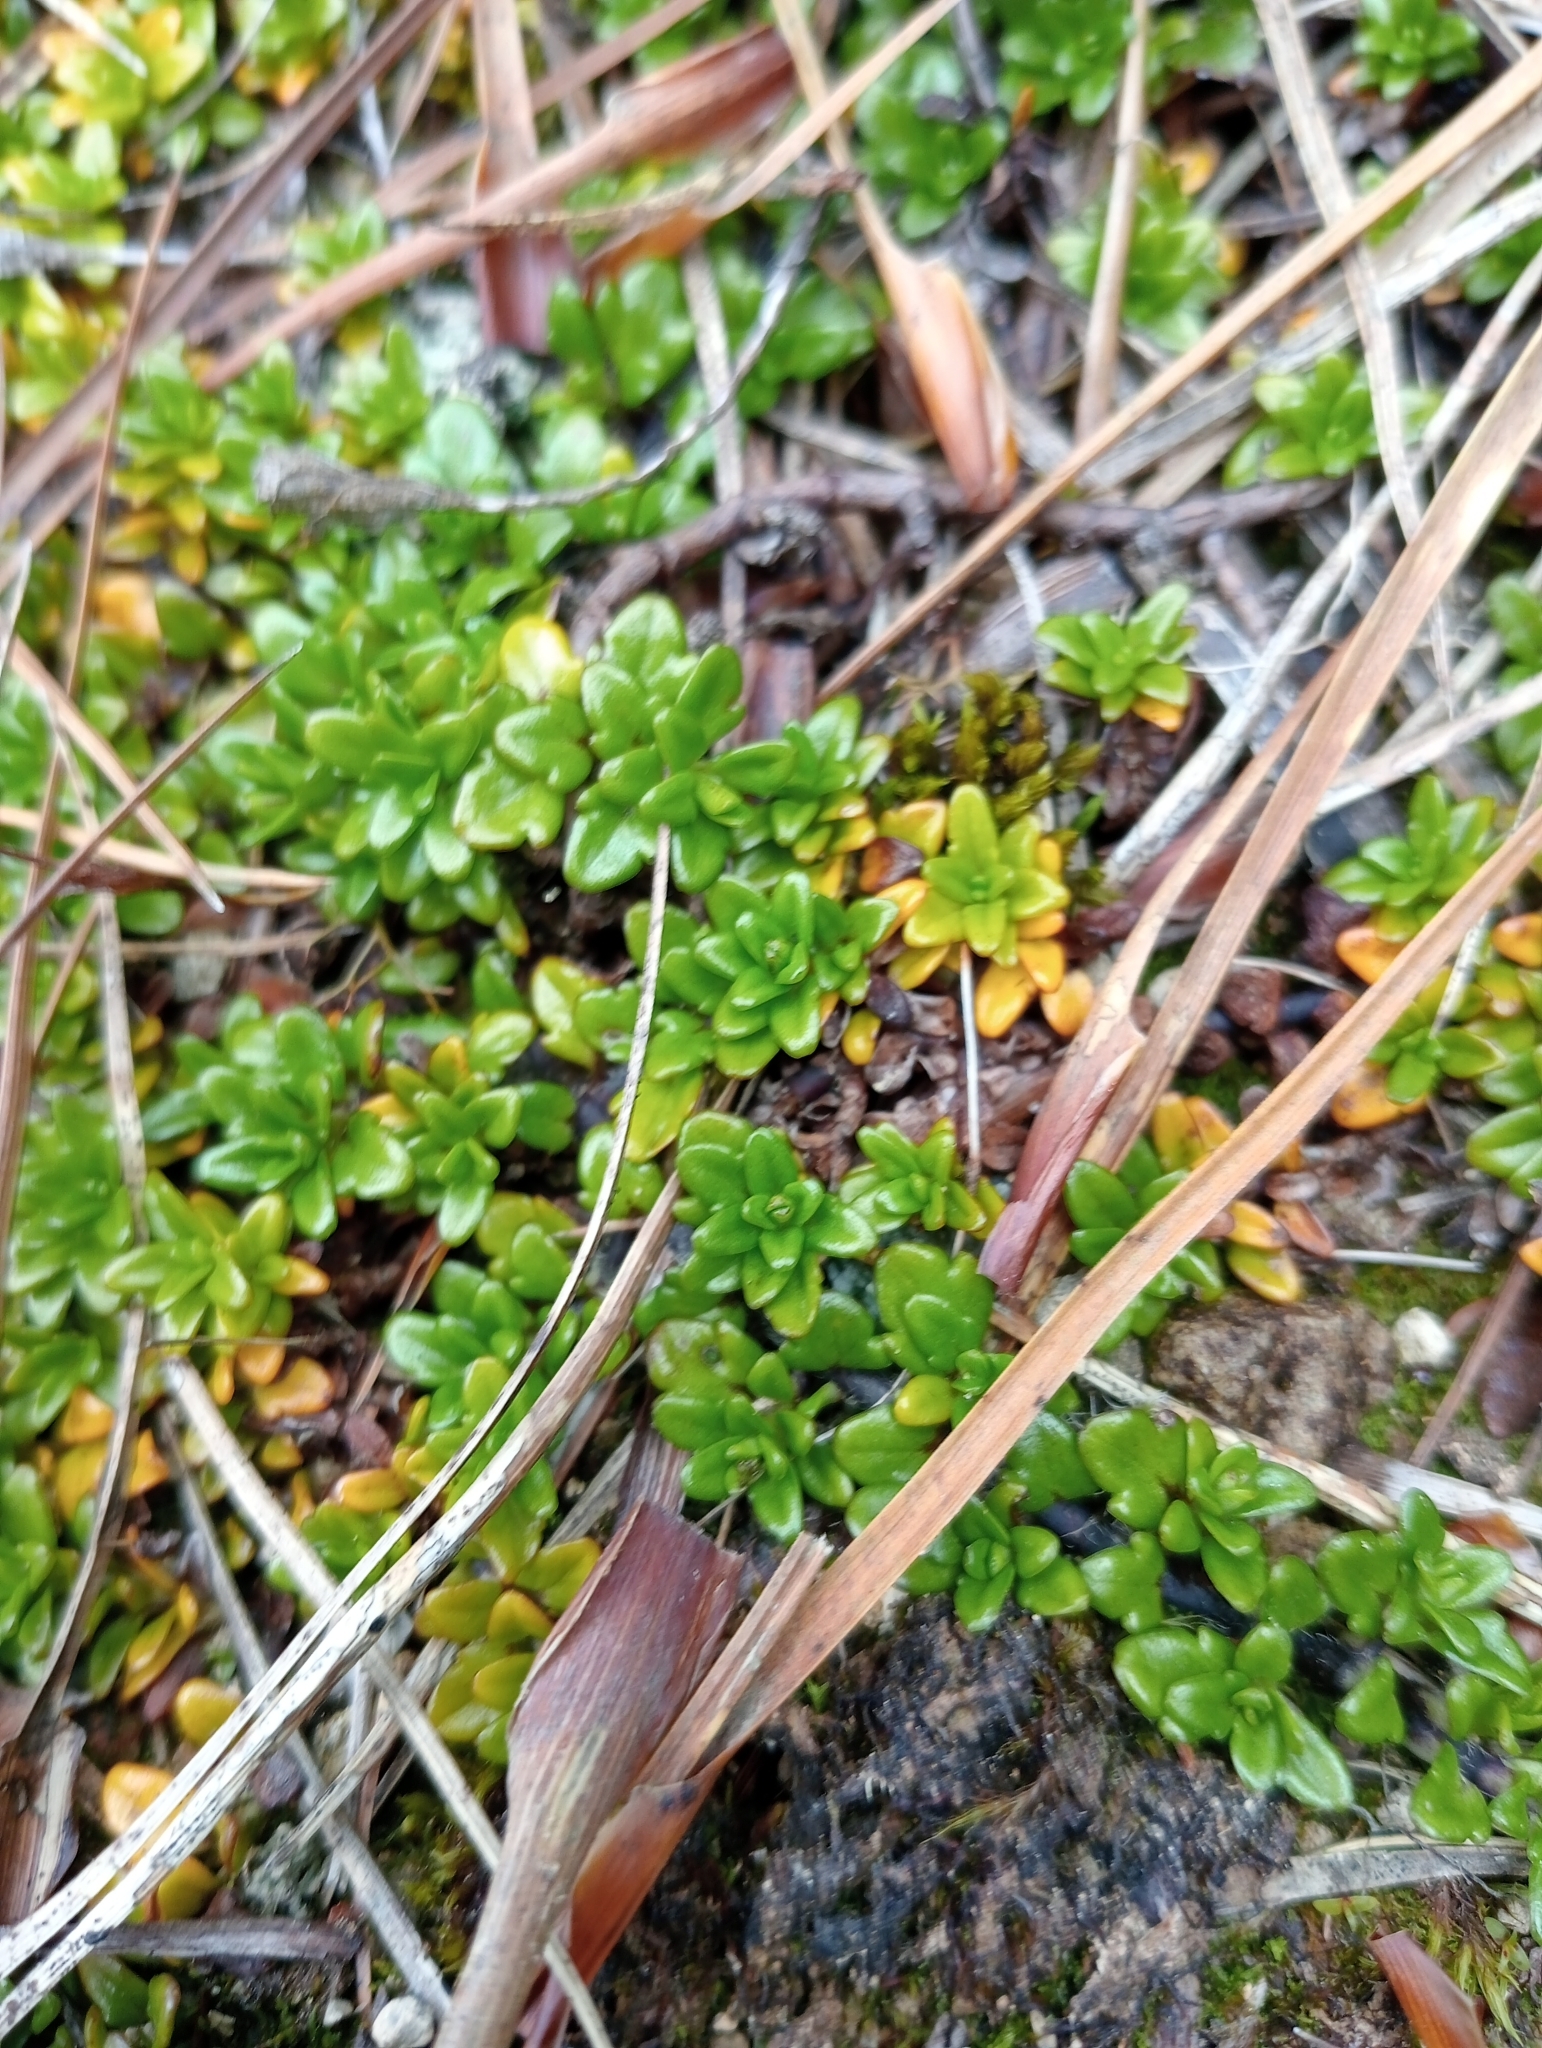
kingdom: Plantae
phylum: Tracheophyta
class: Magnoliopsida
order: Lamiales
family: Plantaginaceae
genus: Ourisia
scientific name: Ourisia caespitosa
